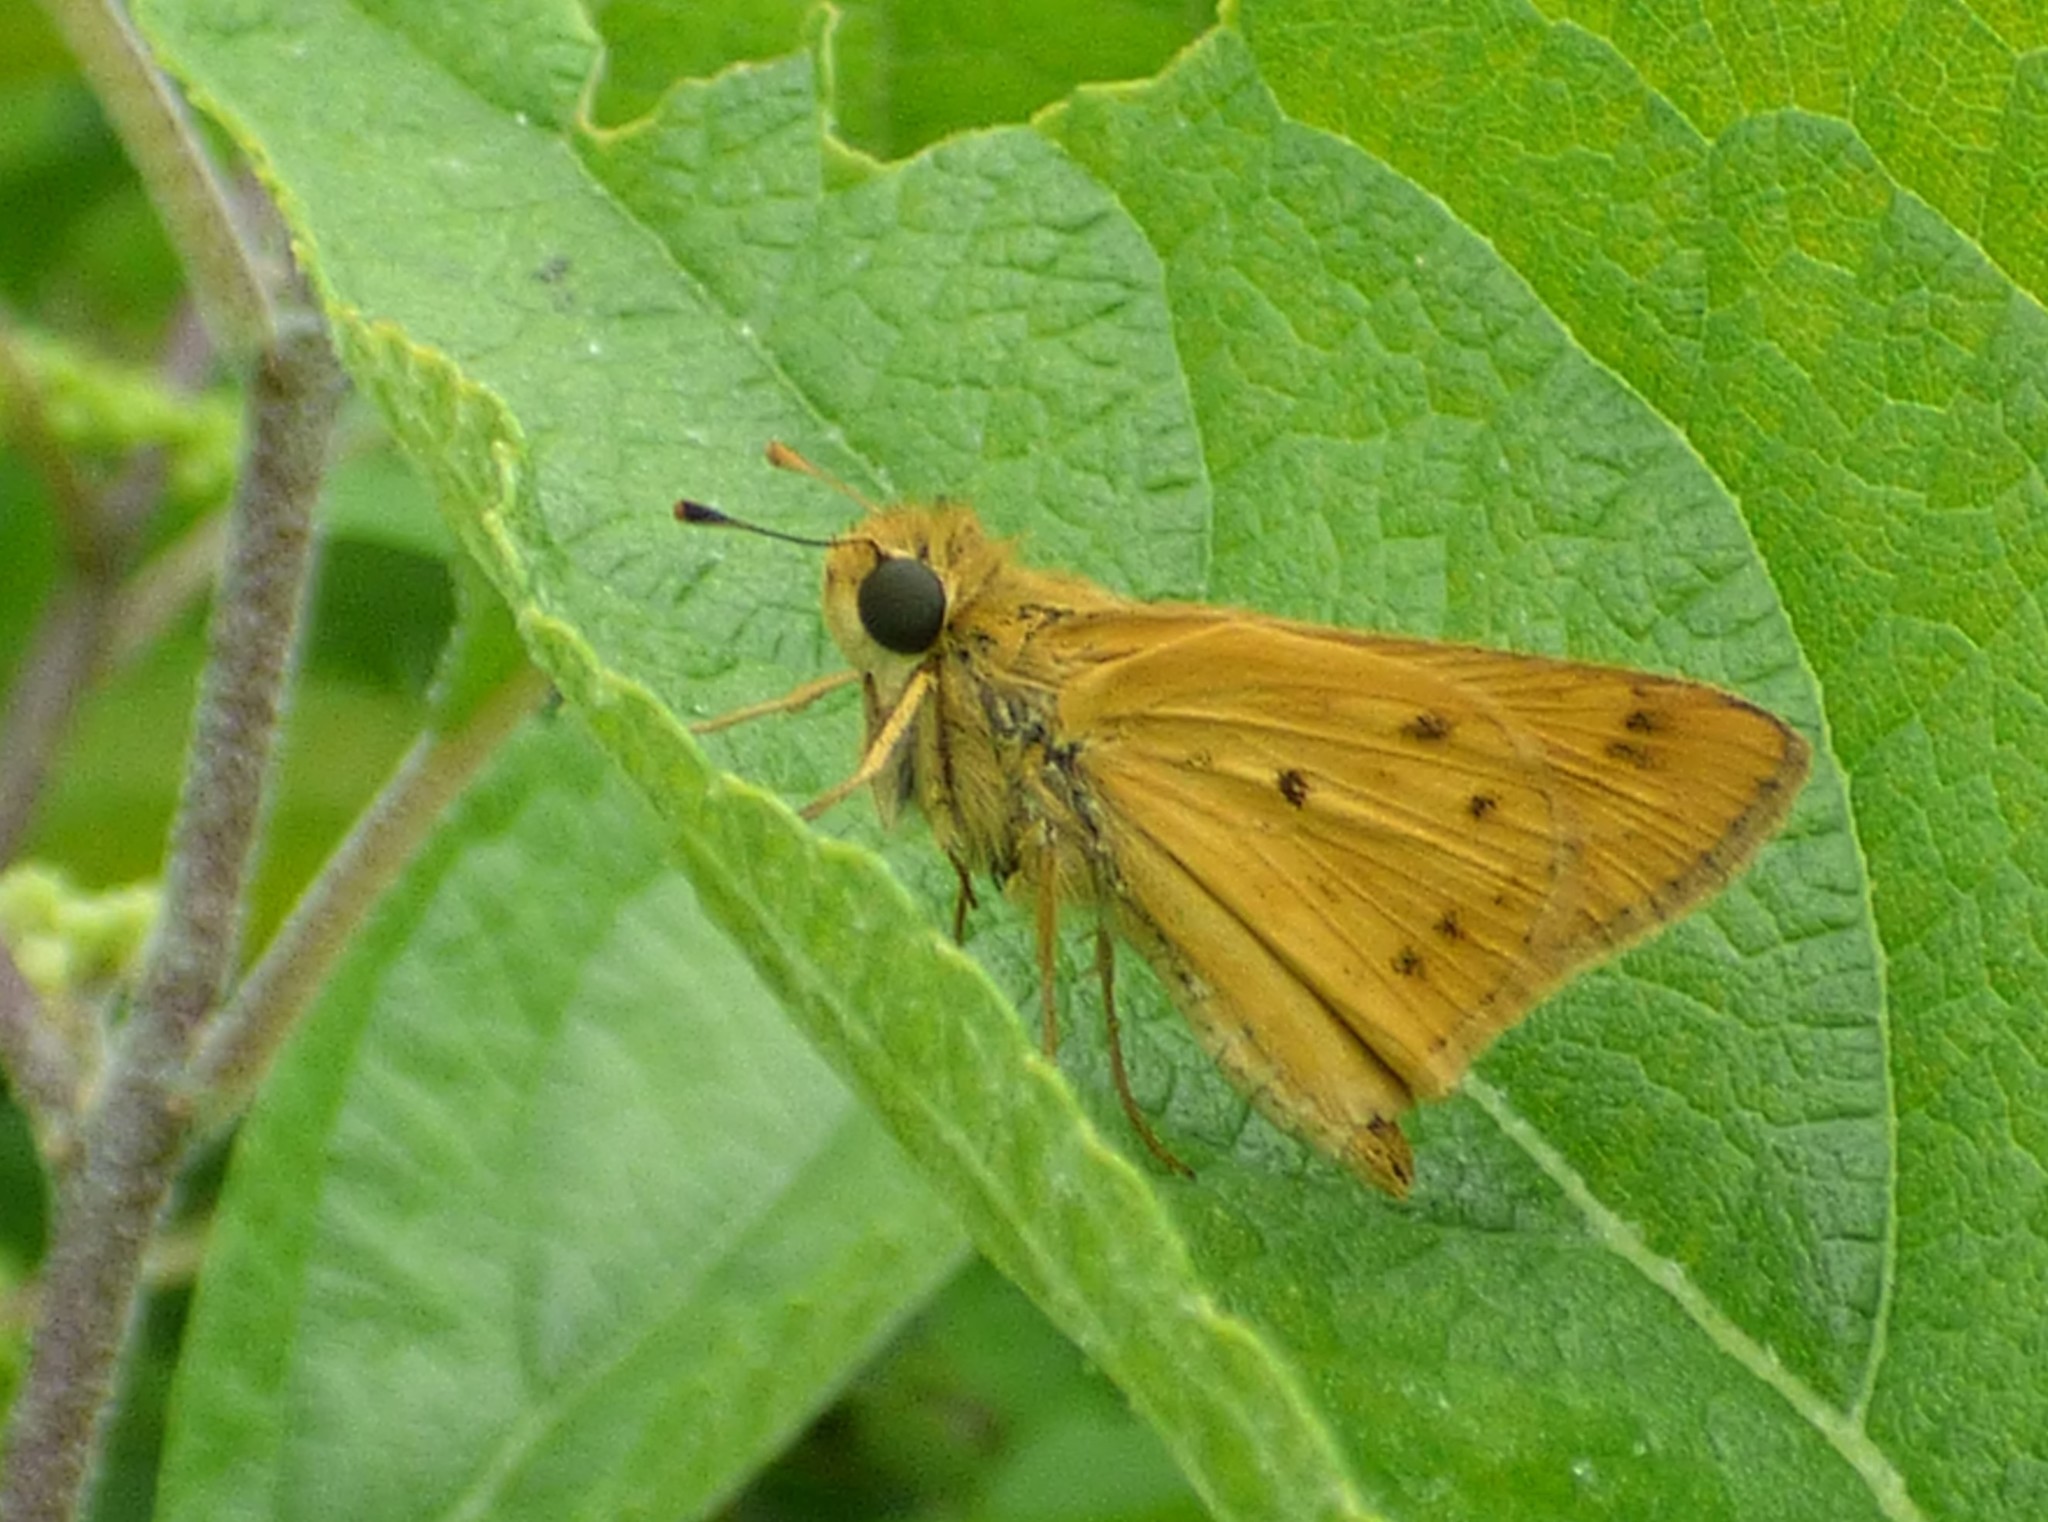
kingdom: Animalia
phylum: Arthropoda
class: Insecta
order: Lepidoptera
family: Hesperiidae
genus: Hylephila
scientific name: Hylephila phyleus
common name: Fiery skipper
